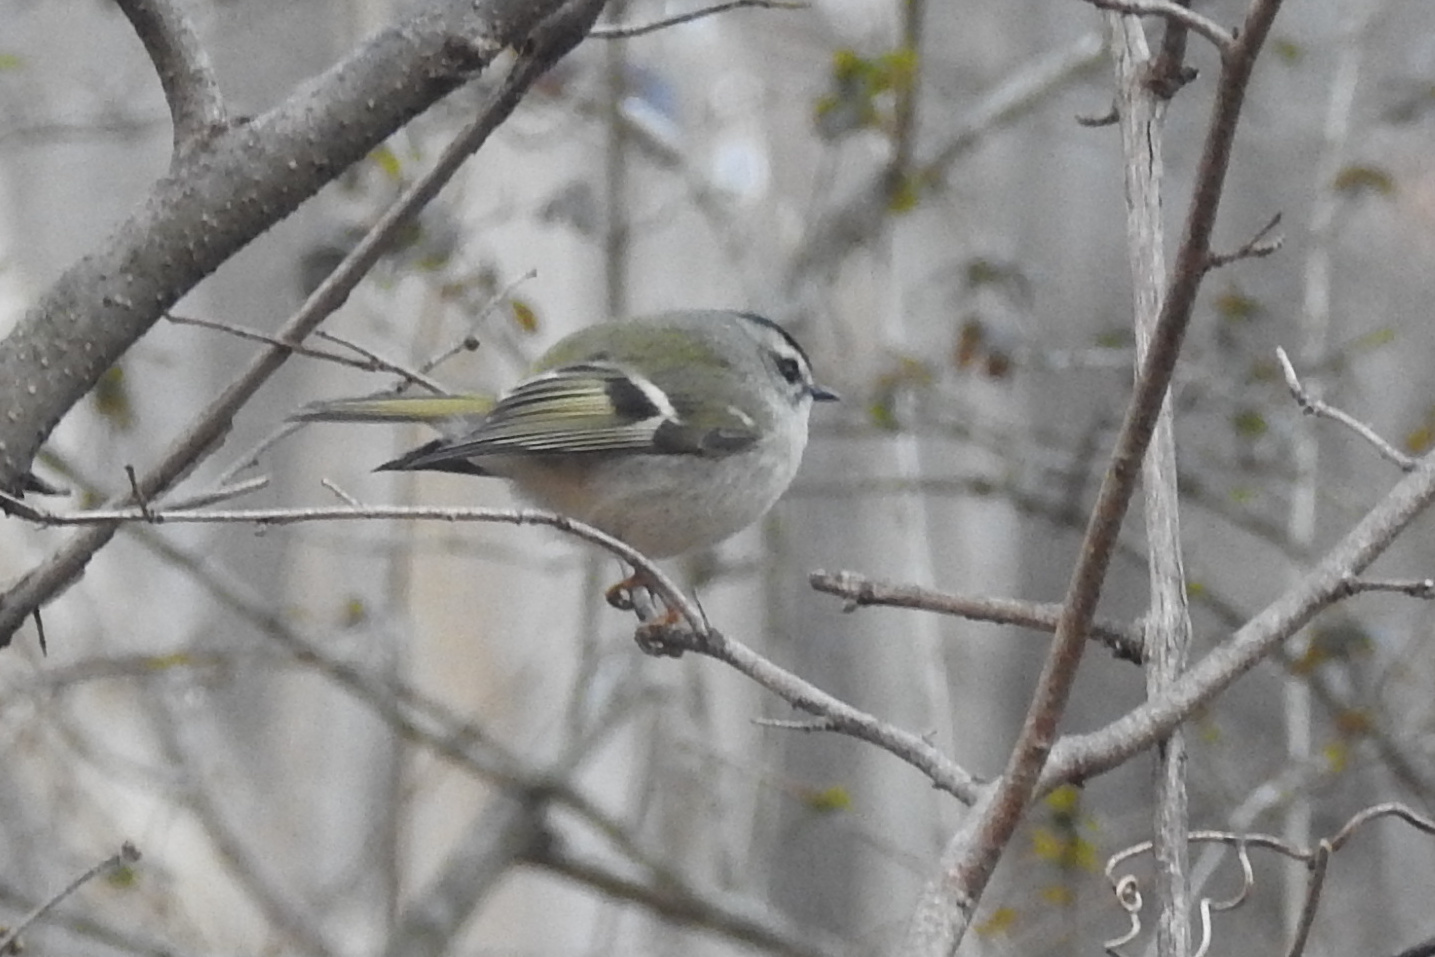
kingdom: Animalia
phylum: Chordata
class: Aves
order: Passeriformes
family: Regulidae
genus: Regulus
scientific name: Regulus satrapa
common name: Golden-crowned kinglet
